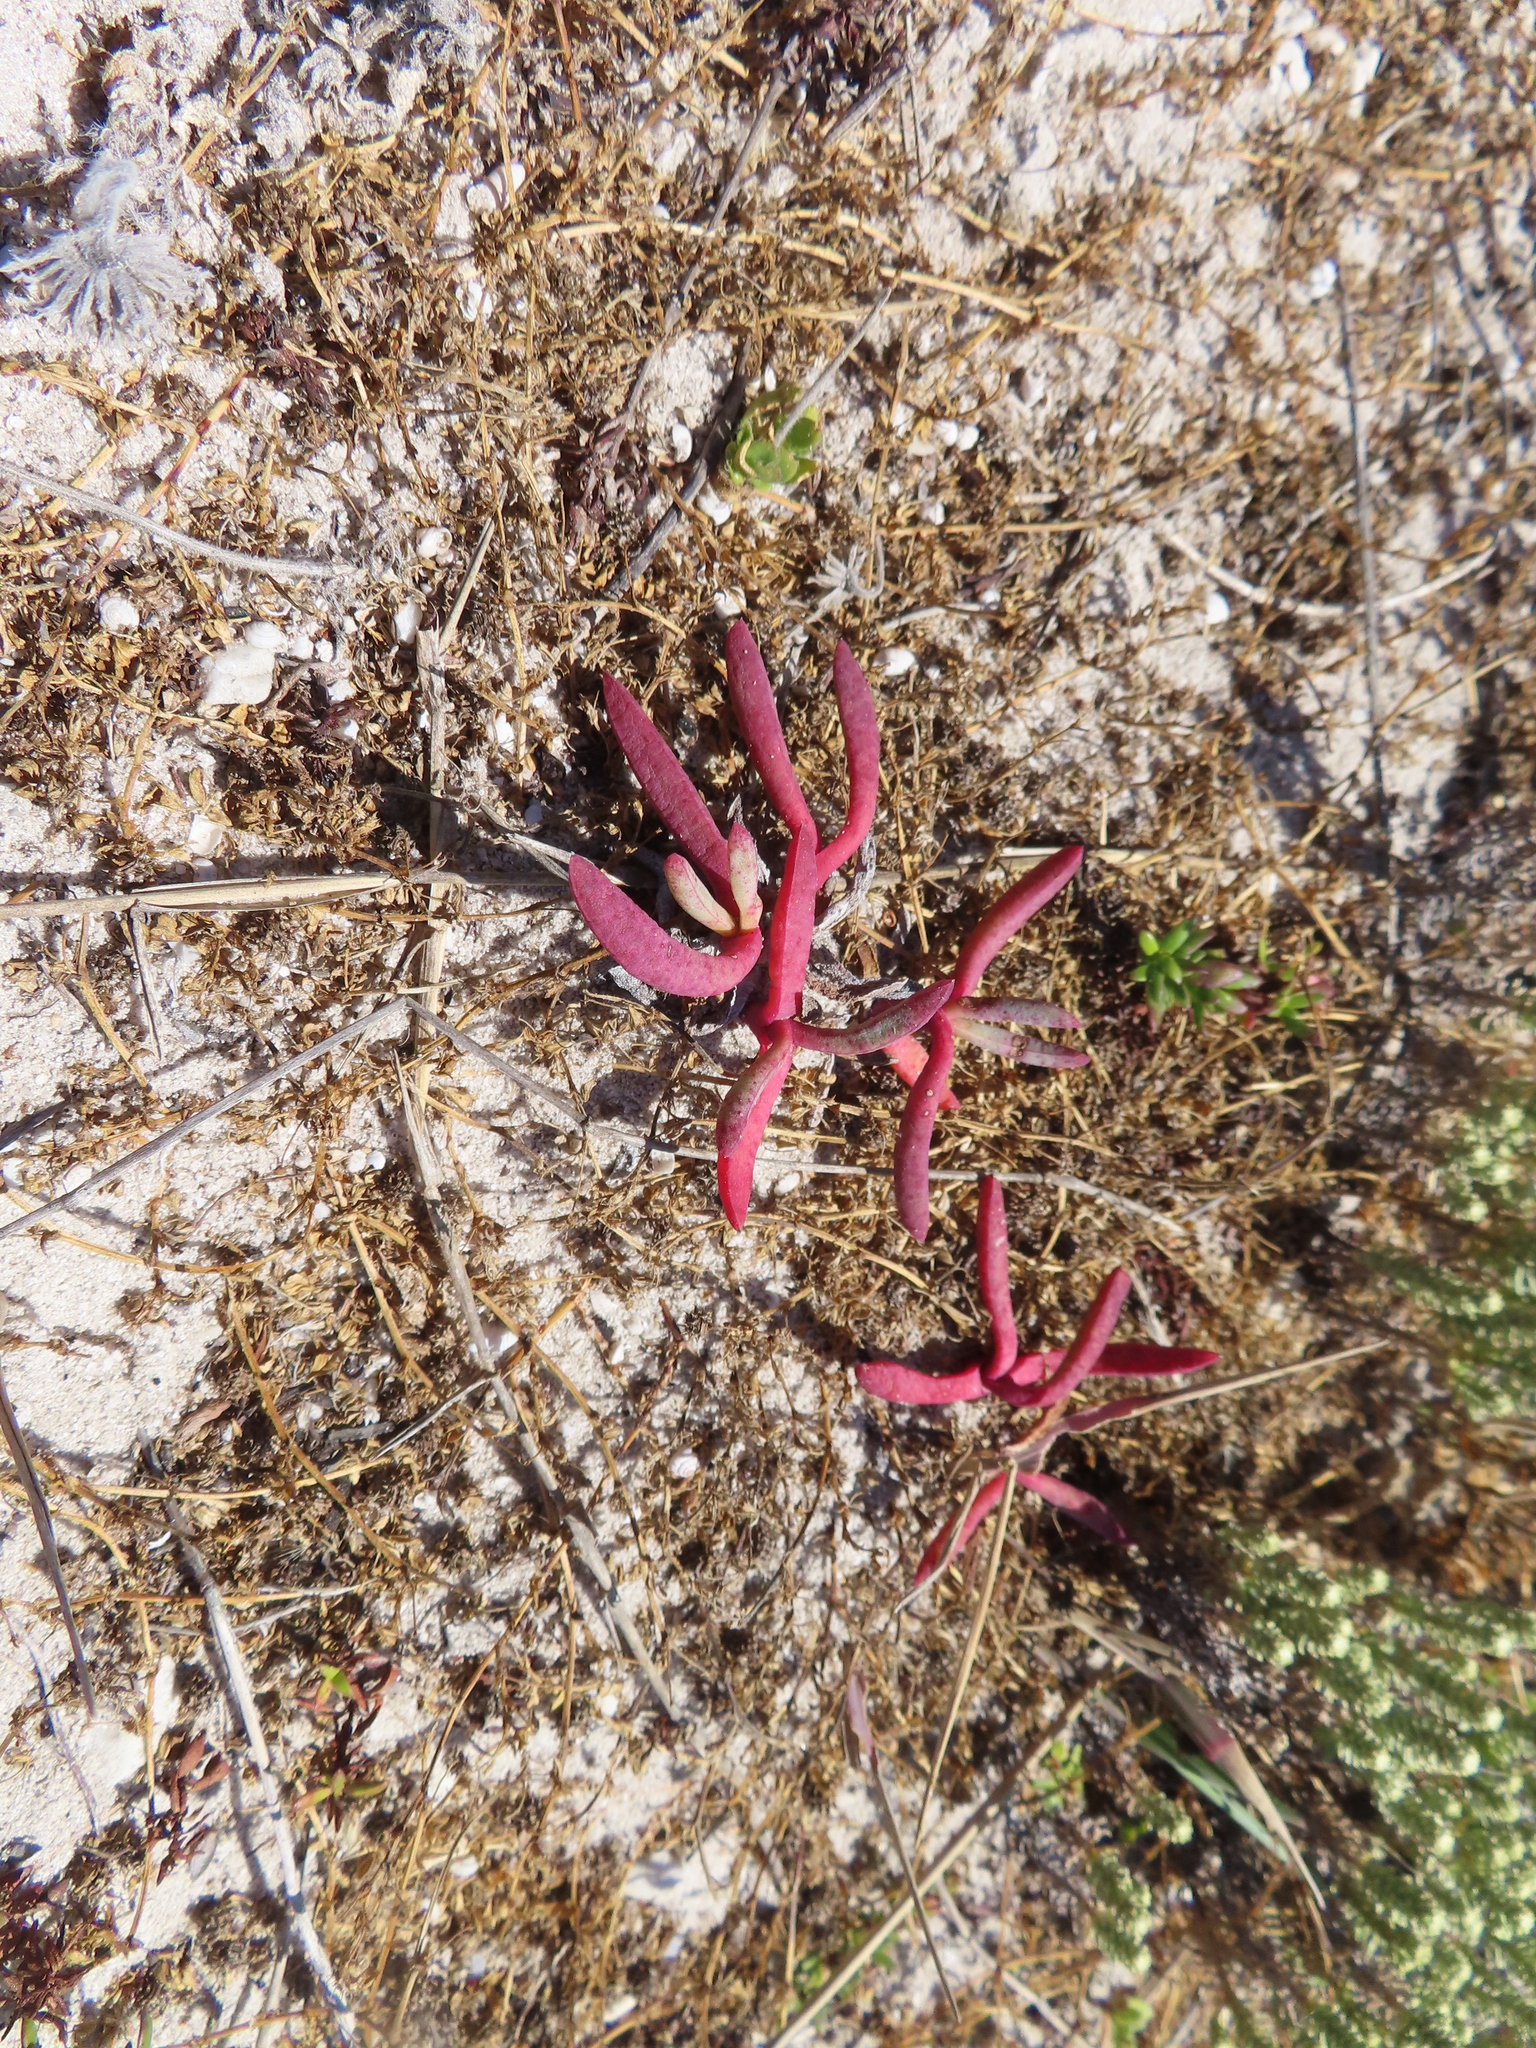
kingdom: Plantae
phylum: Tracheophyta
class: Magnoliopsida
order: Caryophyllales
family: Aizoaceae
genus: Jordaaniella
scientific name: Jordaaniella dubia
